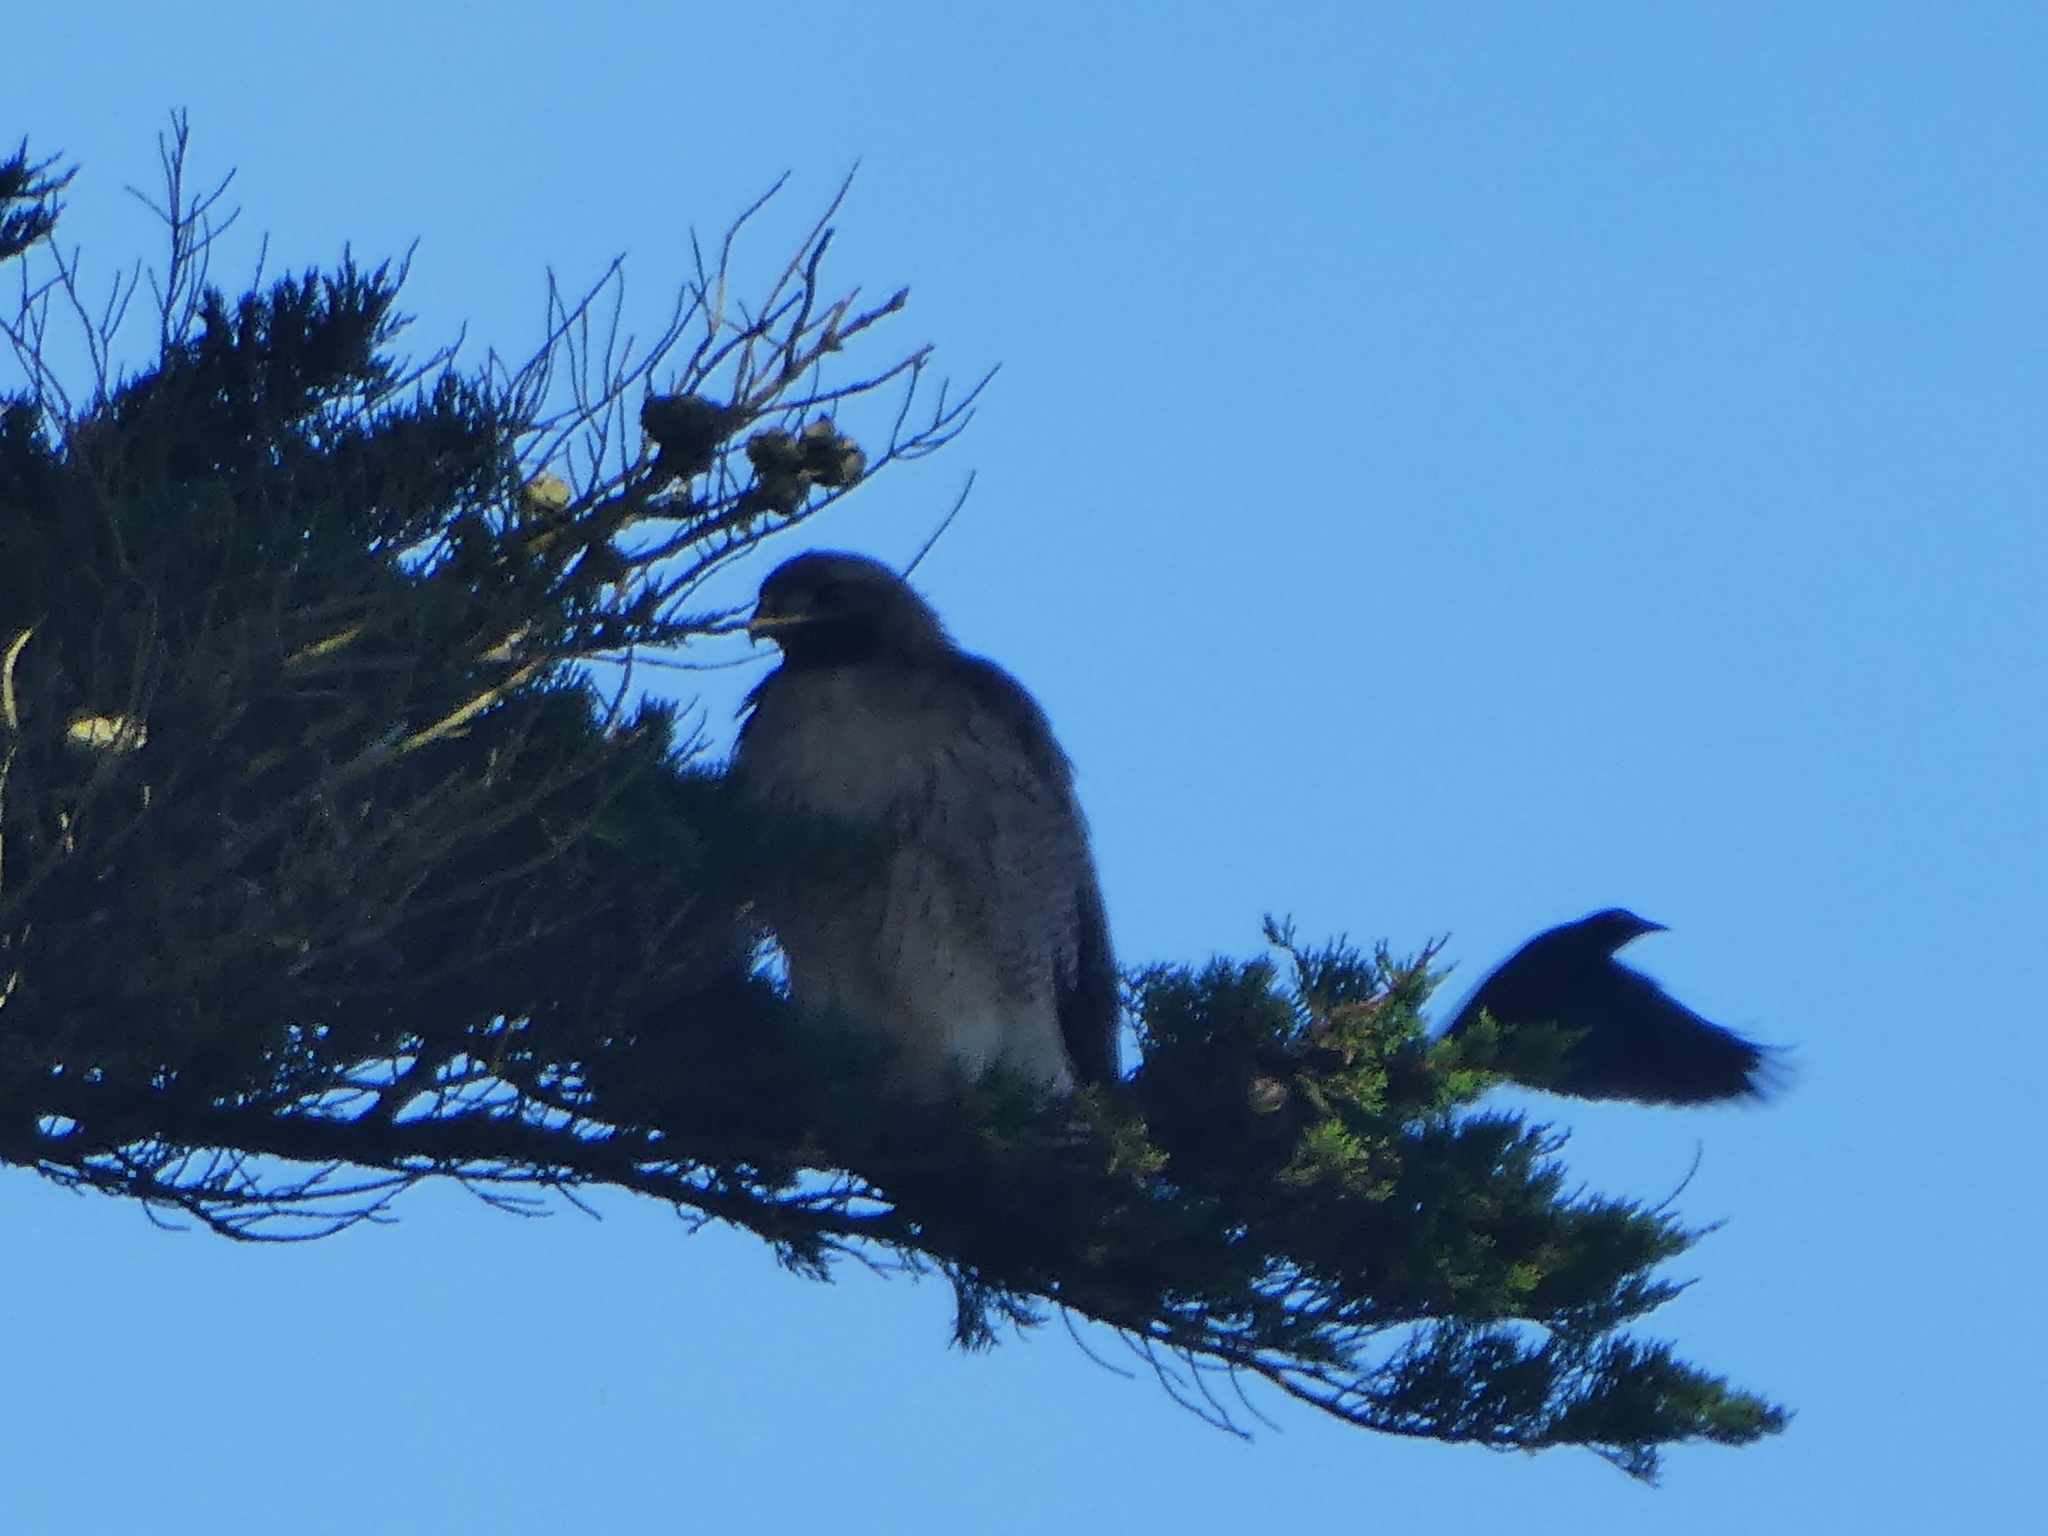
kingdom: Animalia
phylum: Chordata
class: Aves
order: Accipitriformes
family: Accipitridae
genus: Buteo
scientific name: Buteo jamaicensis
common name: Red-tailed hawk
